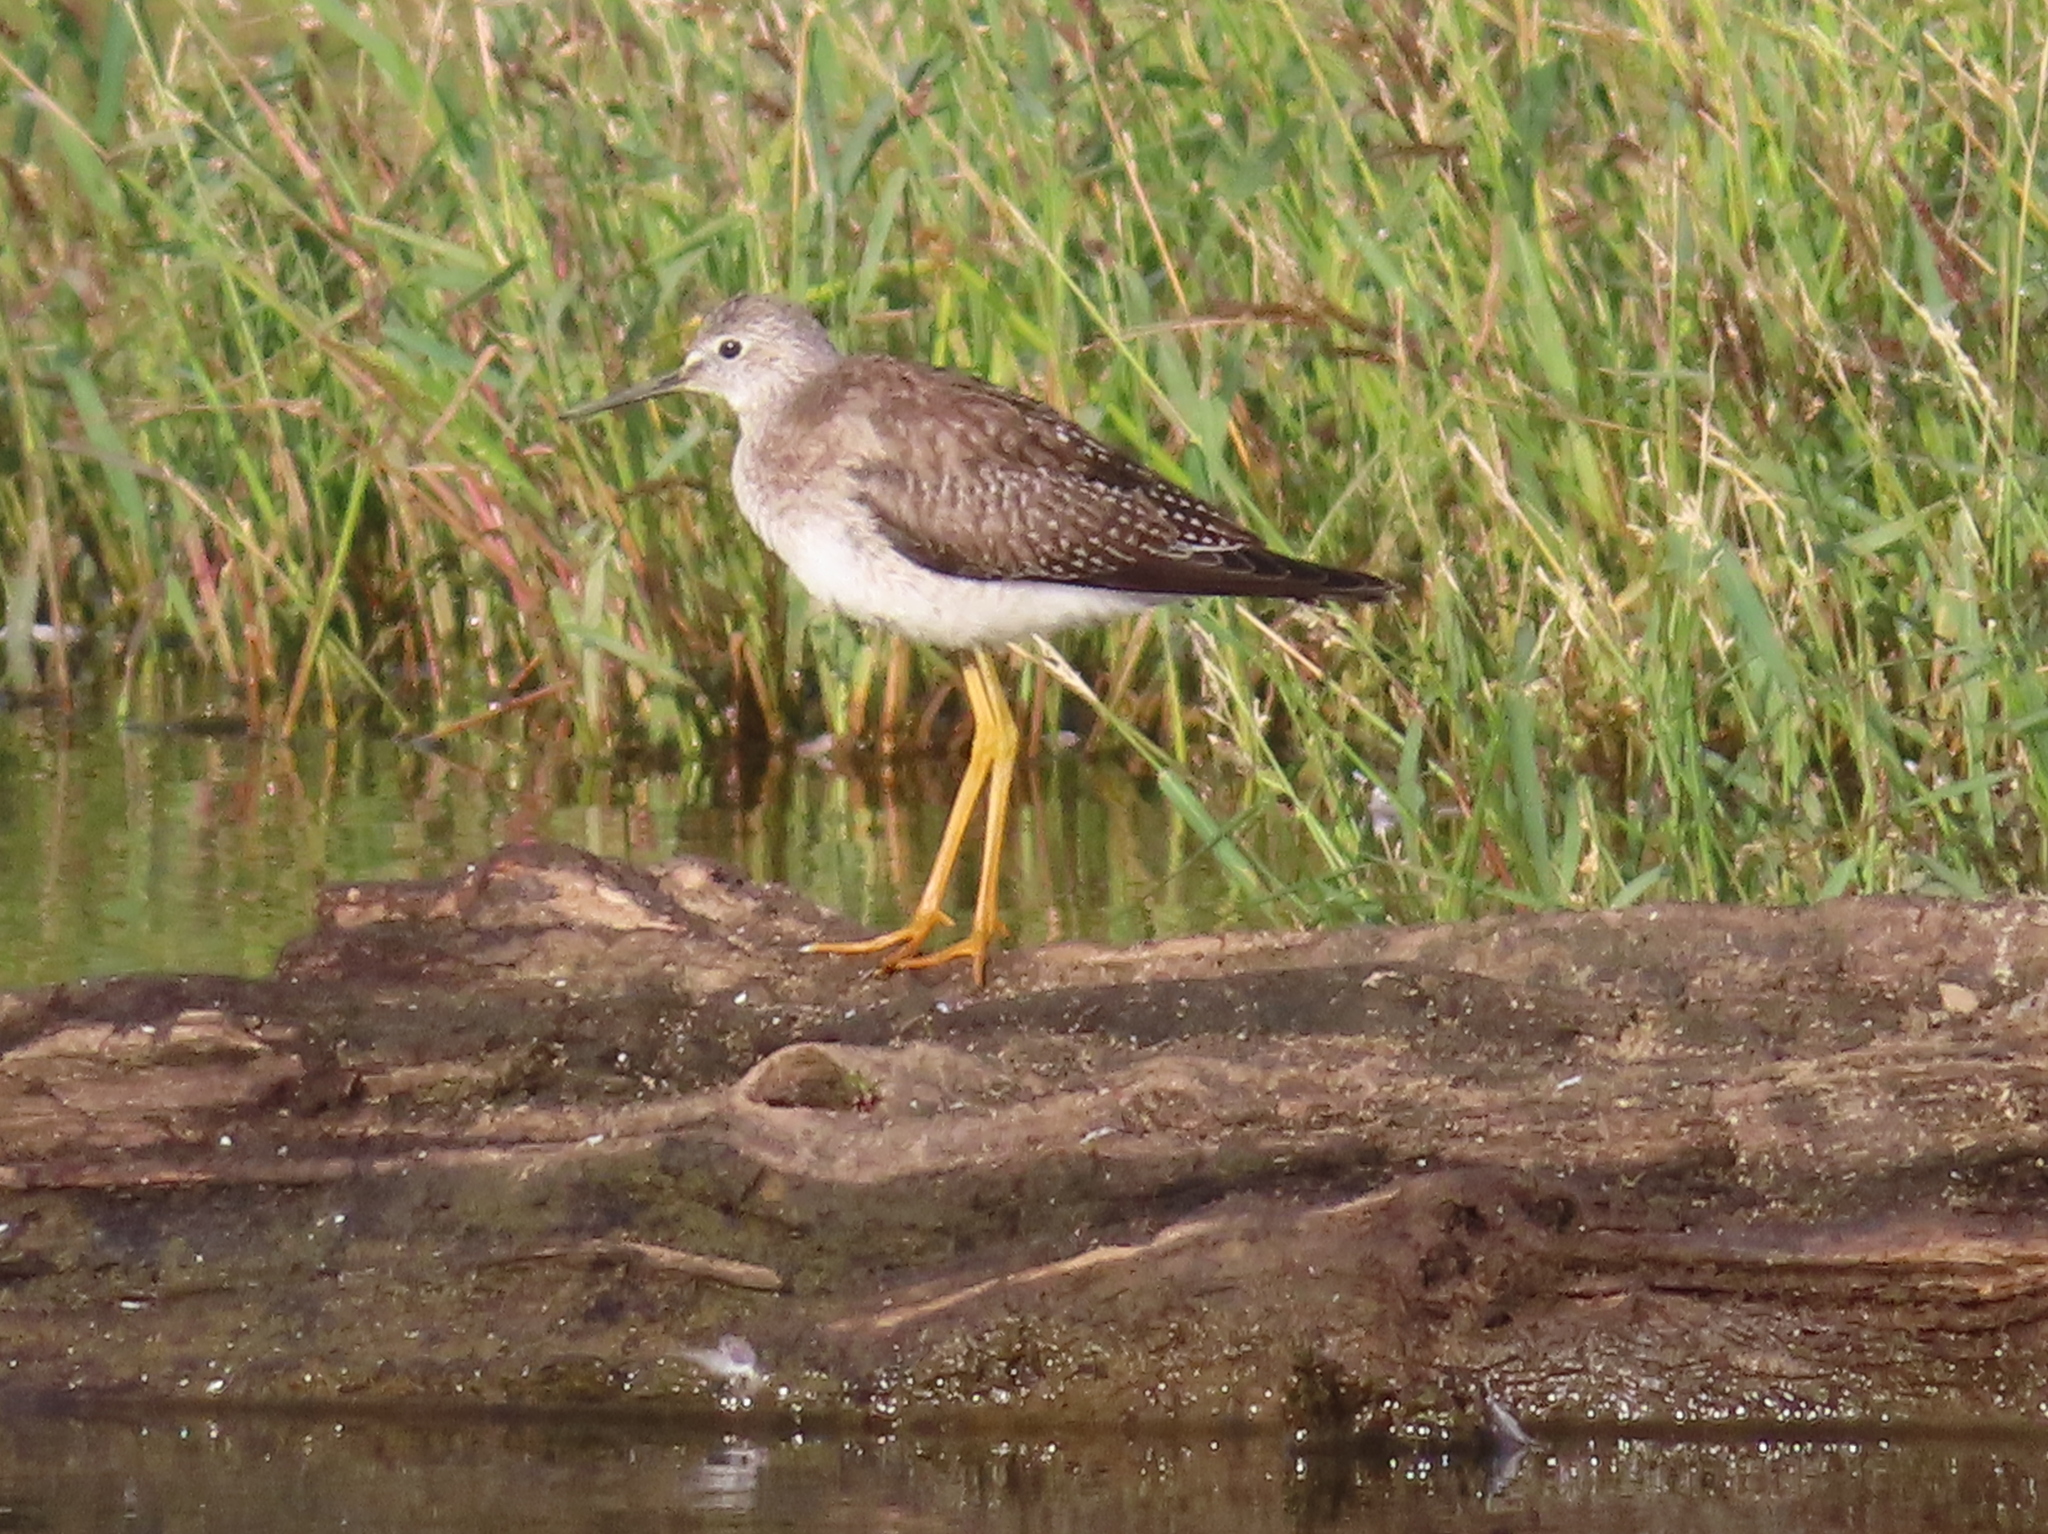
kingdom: Animalia
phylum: Chordata
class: Aves
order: Charadriiformes
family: Scolopacidae
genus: Tringa
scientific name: Tringa flavipes
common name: Lesser yellowlegs
